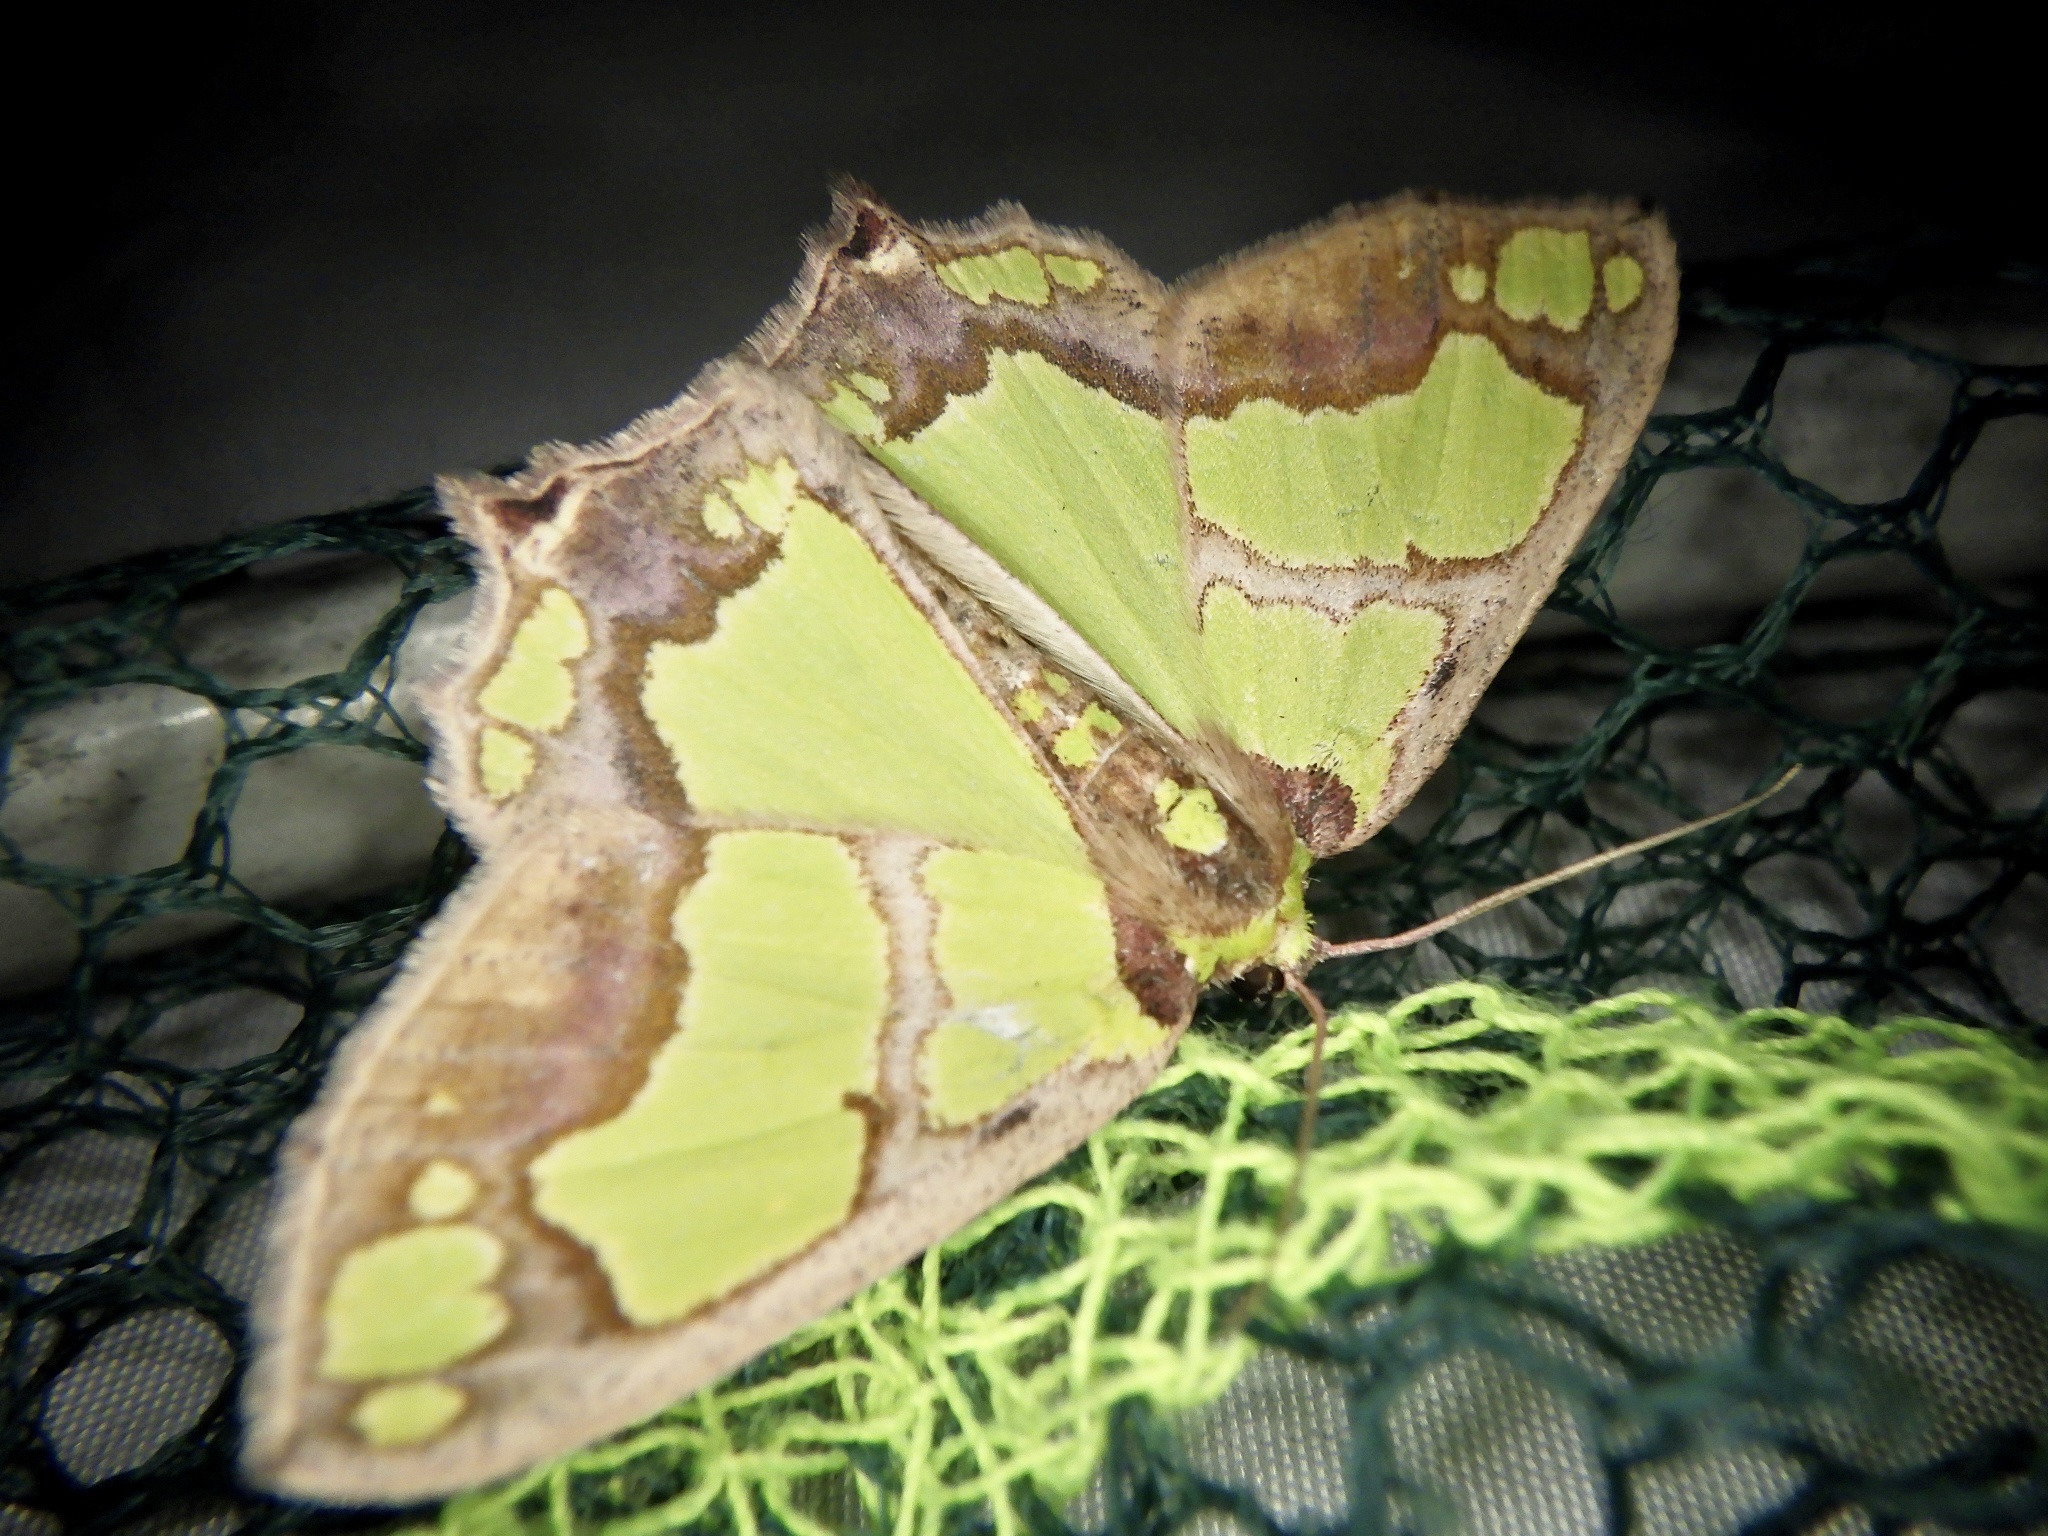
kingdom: Animalia
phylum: Arthropoda
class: Insecta
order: Lepidoptera
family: Geometridae
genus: Agathia
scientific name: Agathia visenda
